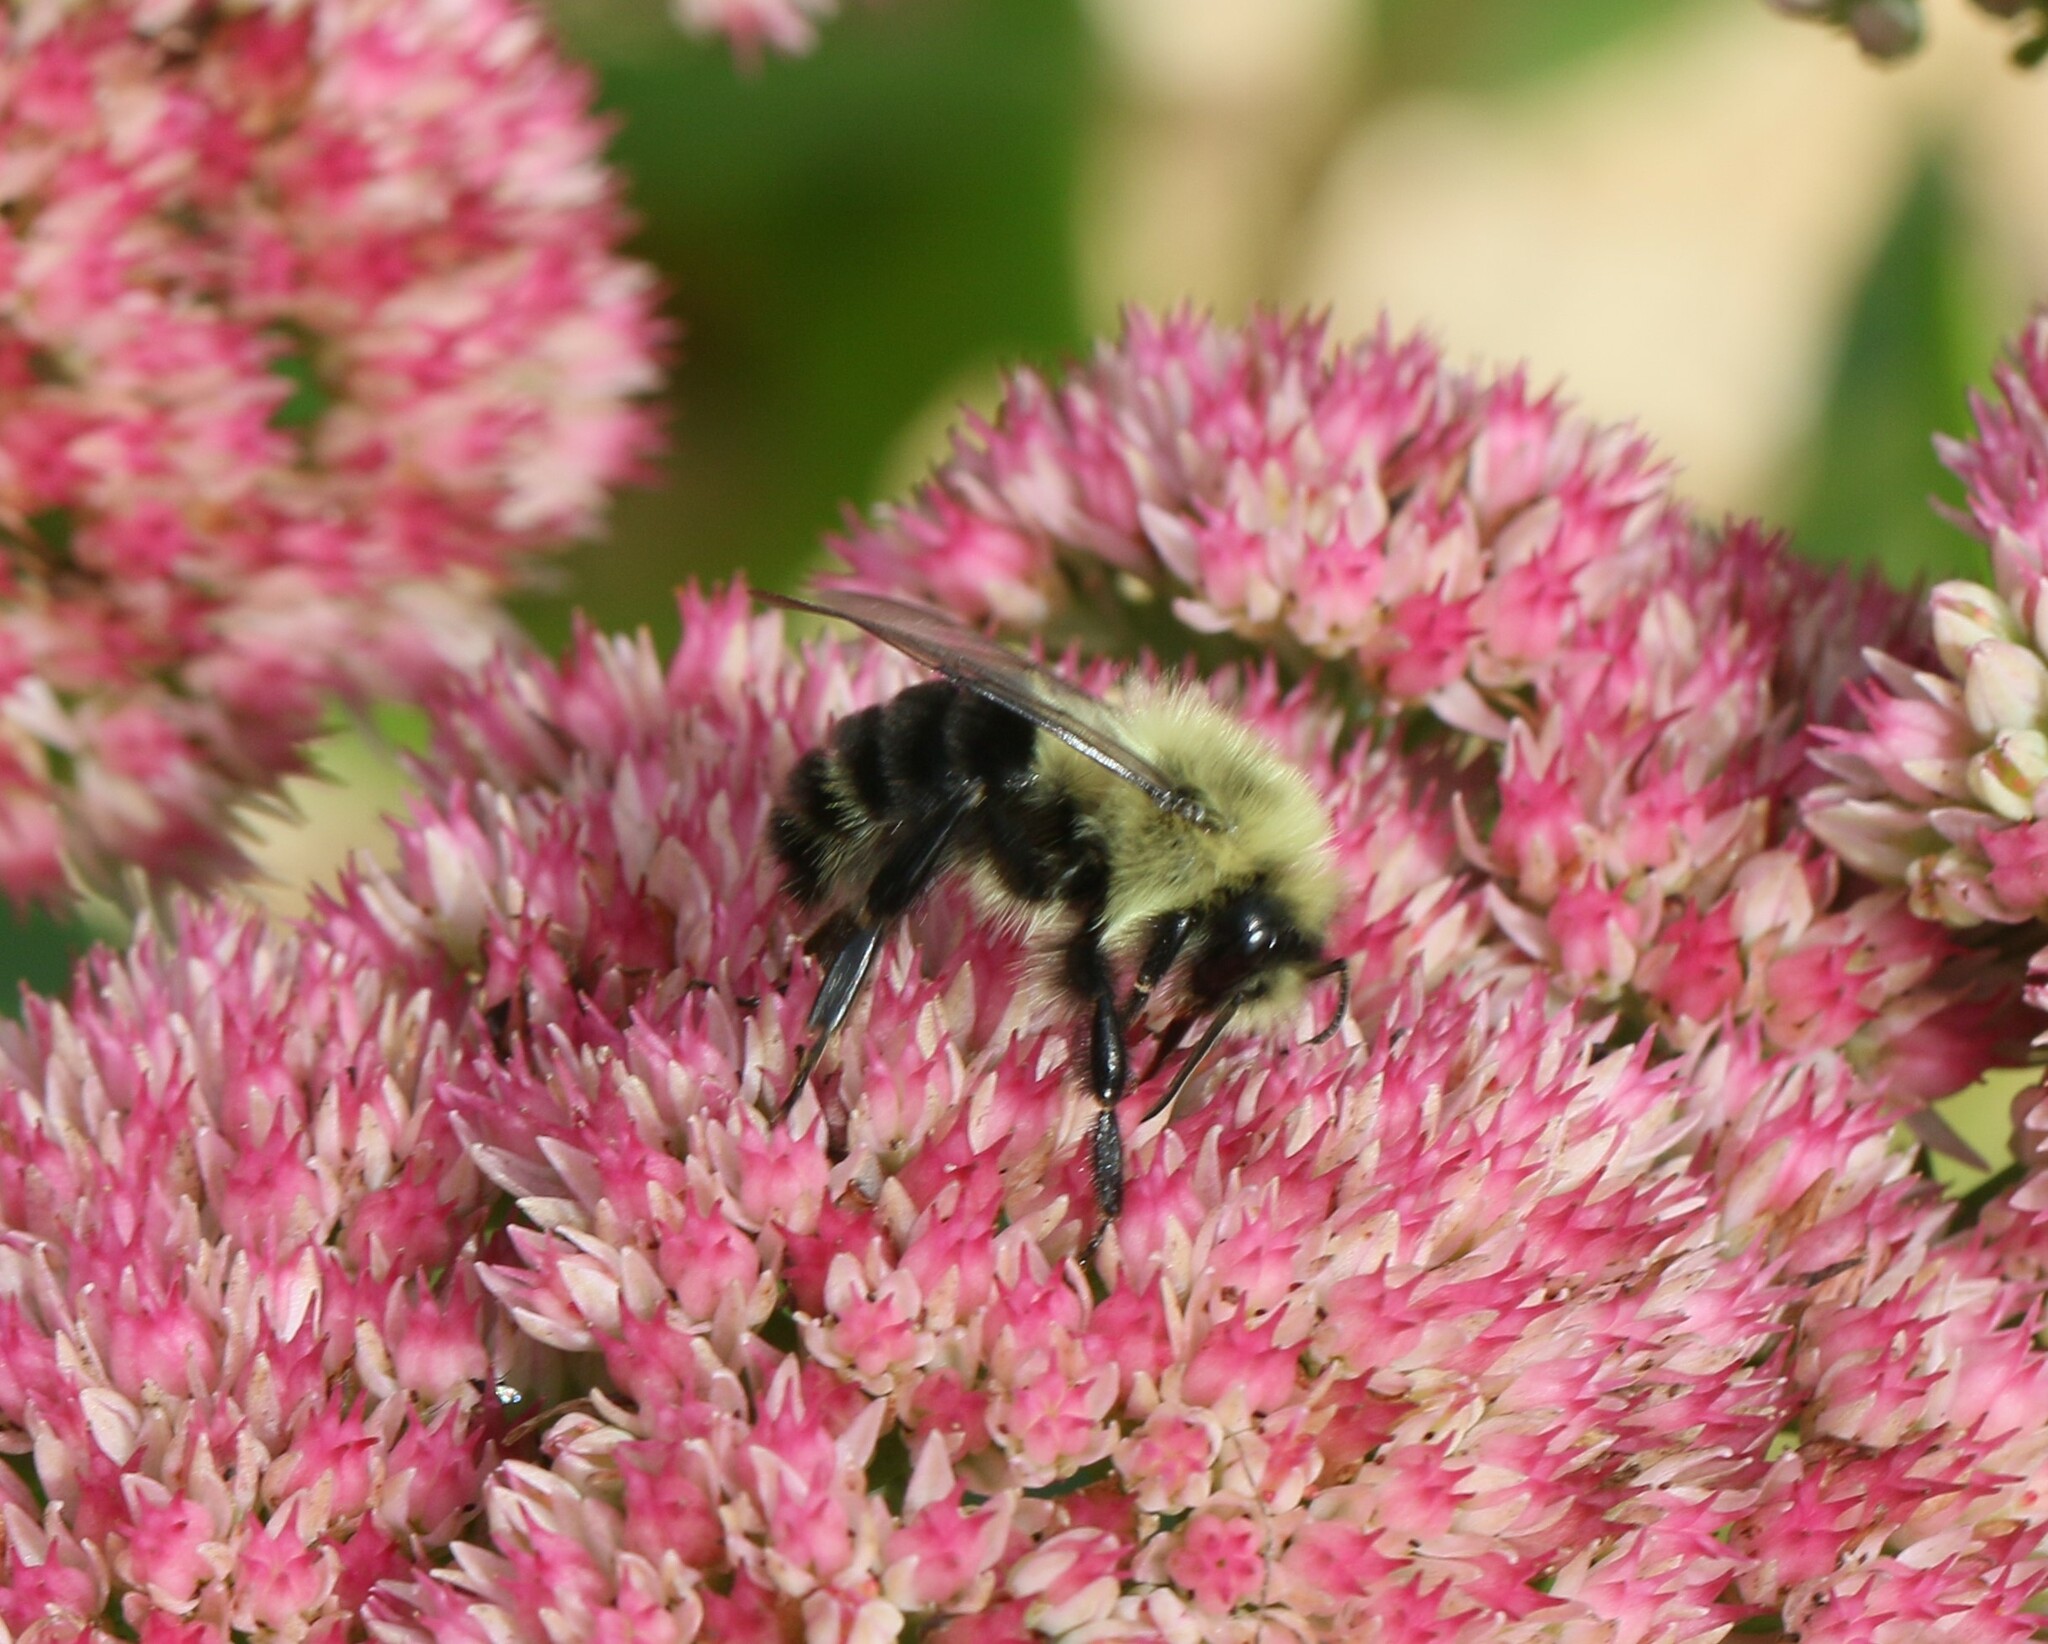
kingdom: Animalia
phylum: Arthropoda
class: Insecta
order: Hymenoptera
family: Apidae
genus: Bombus
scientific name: Bombus impatiens
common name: Common eastern bumble bee
